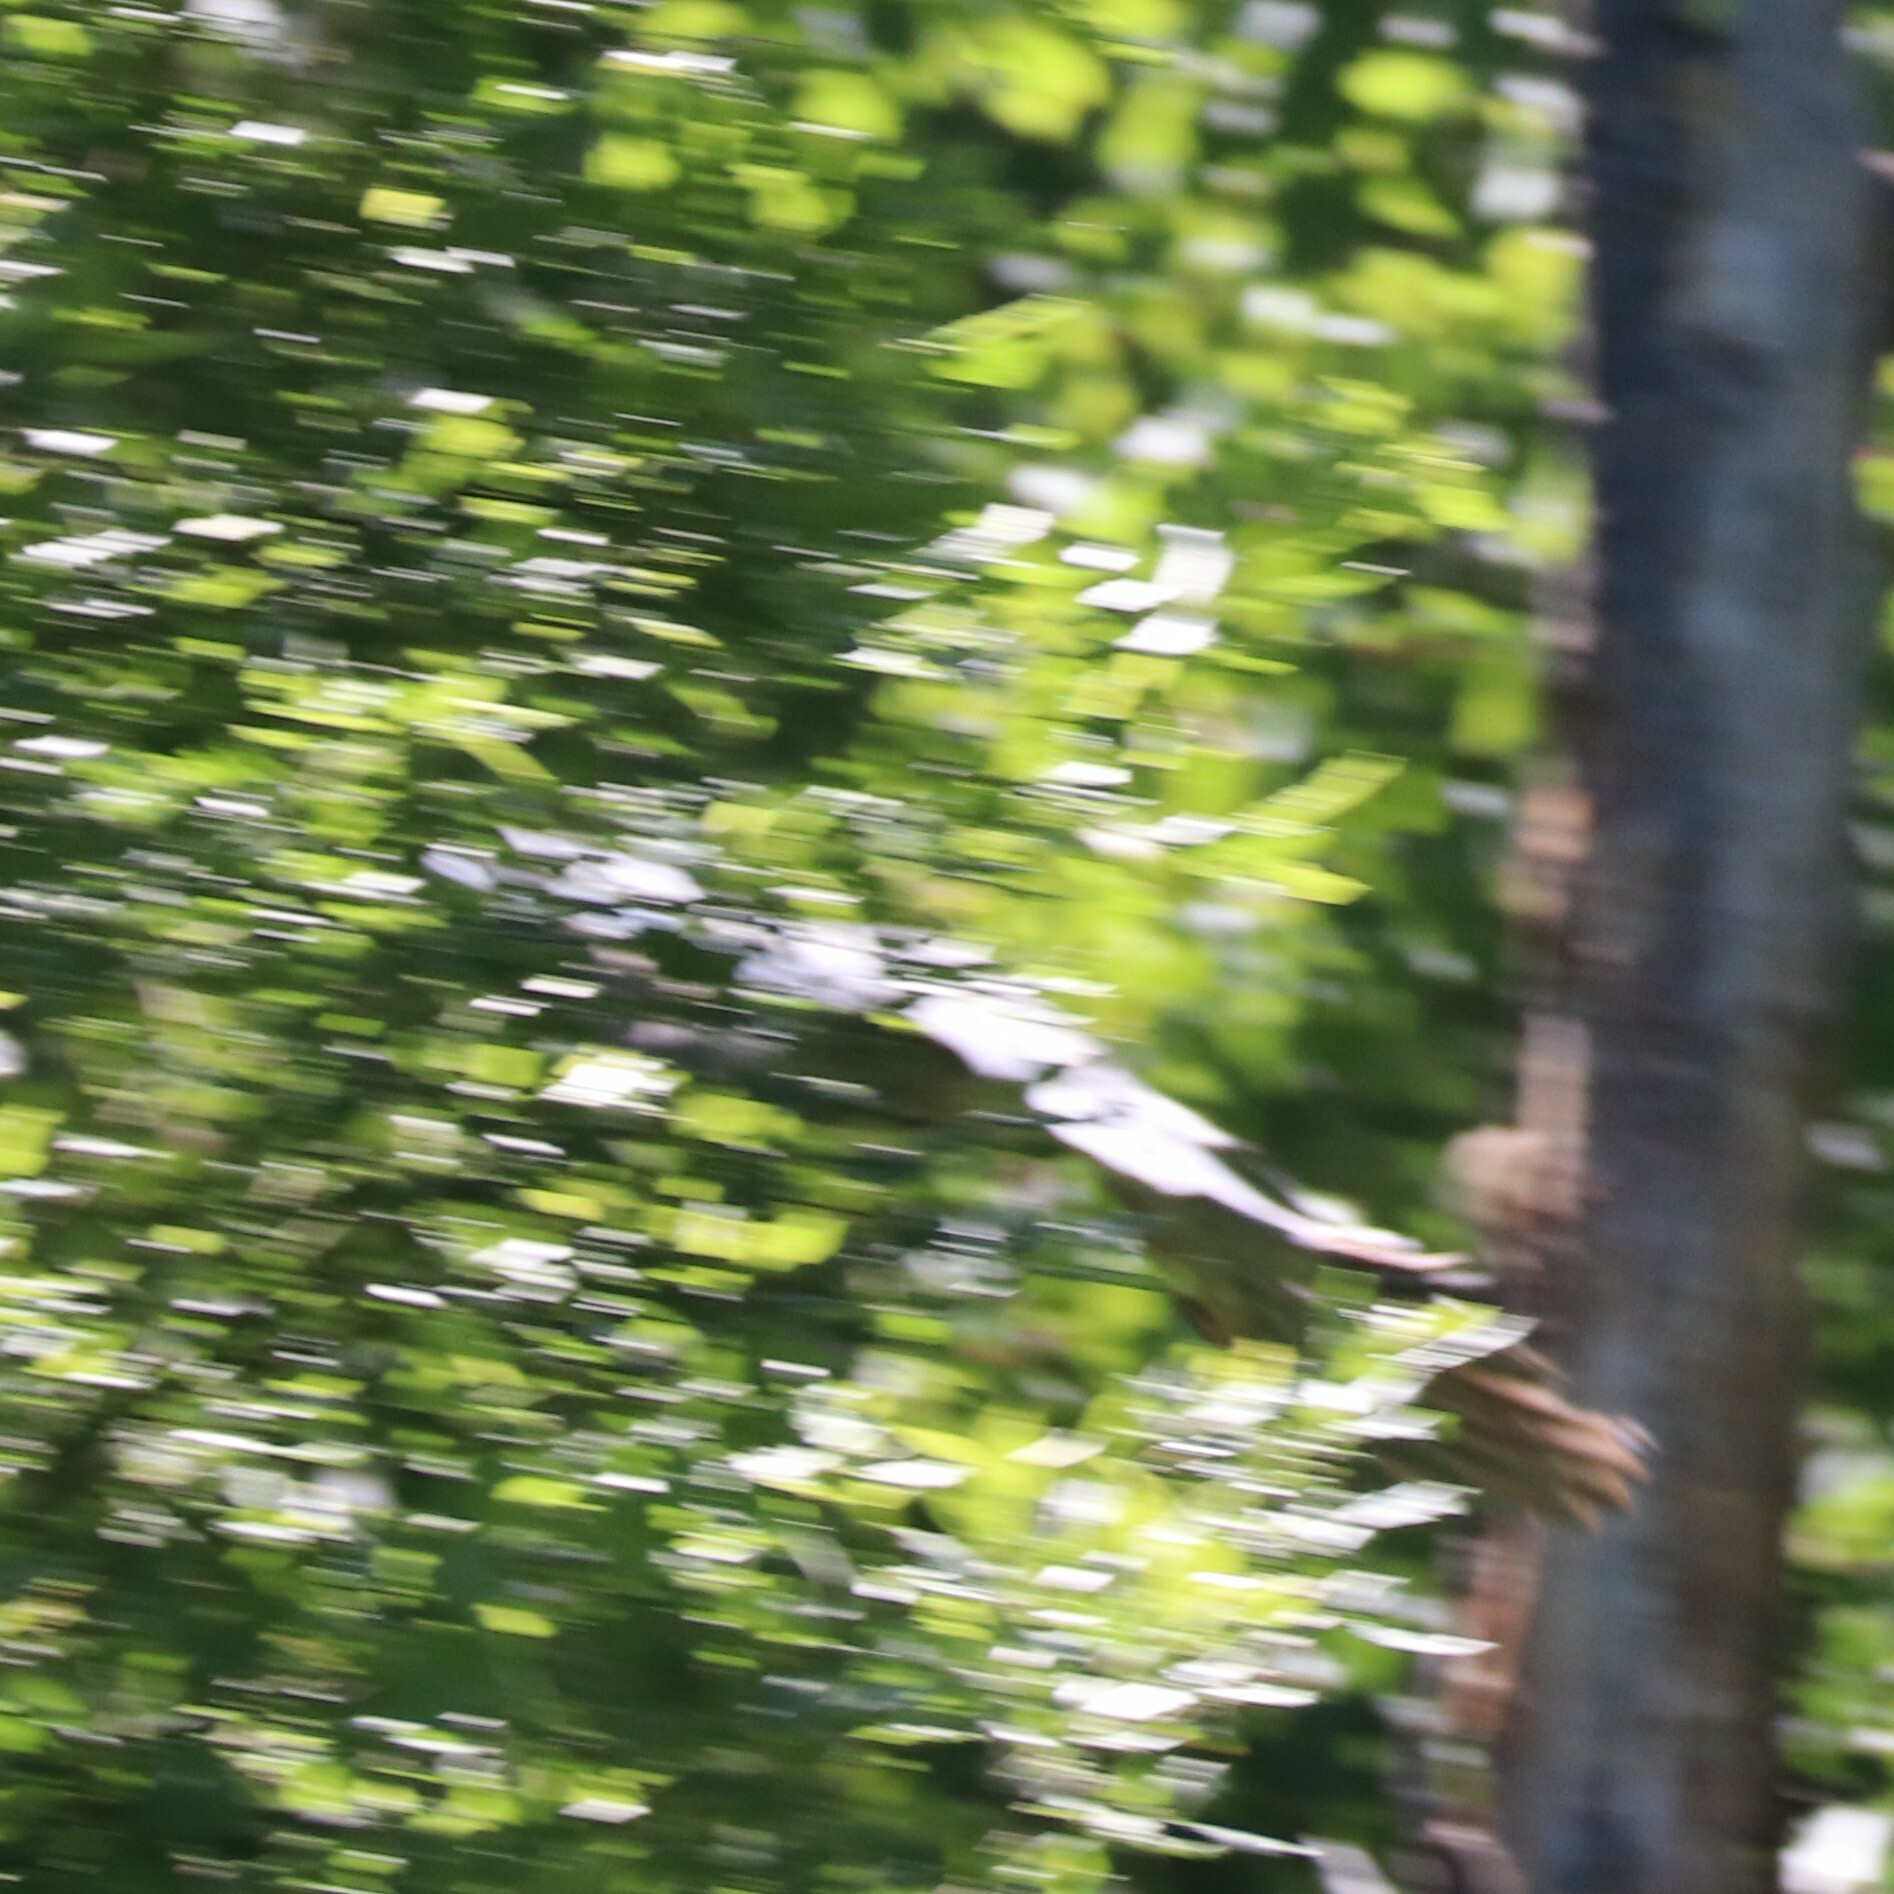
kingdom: Animalia
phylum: Chordata
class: Aves
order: Pelecaniformes
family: Ardeidae
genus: Ardea
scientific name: Ardea herodias
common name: Great blue heron
